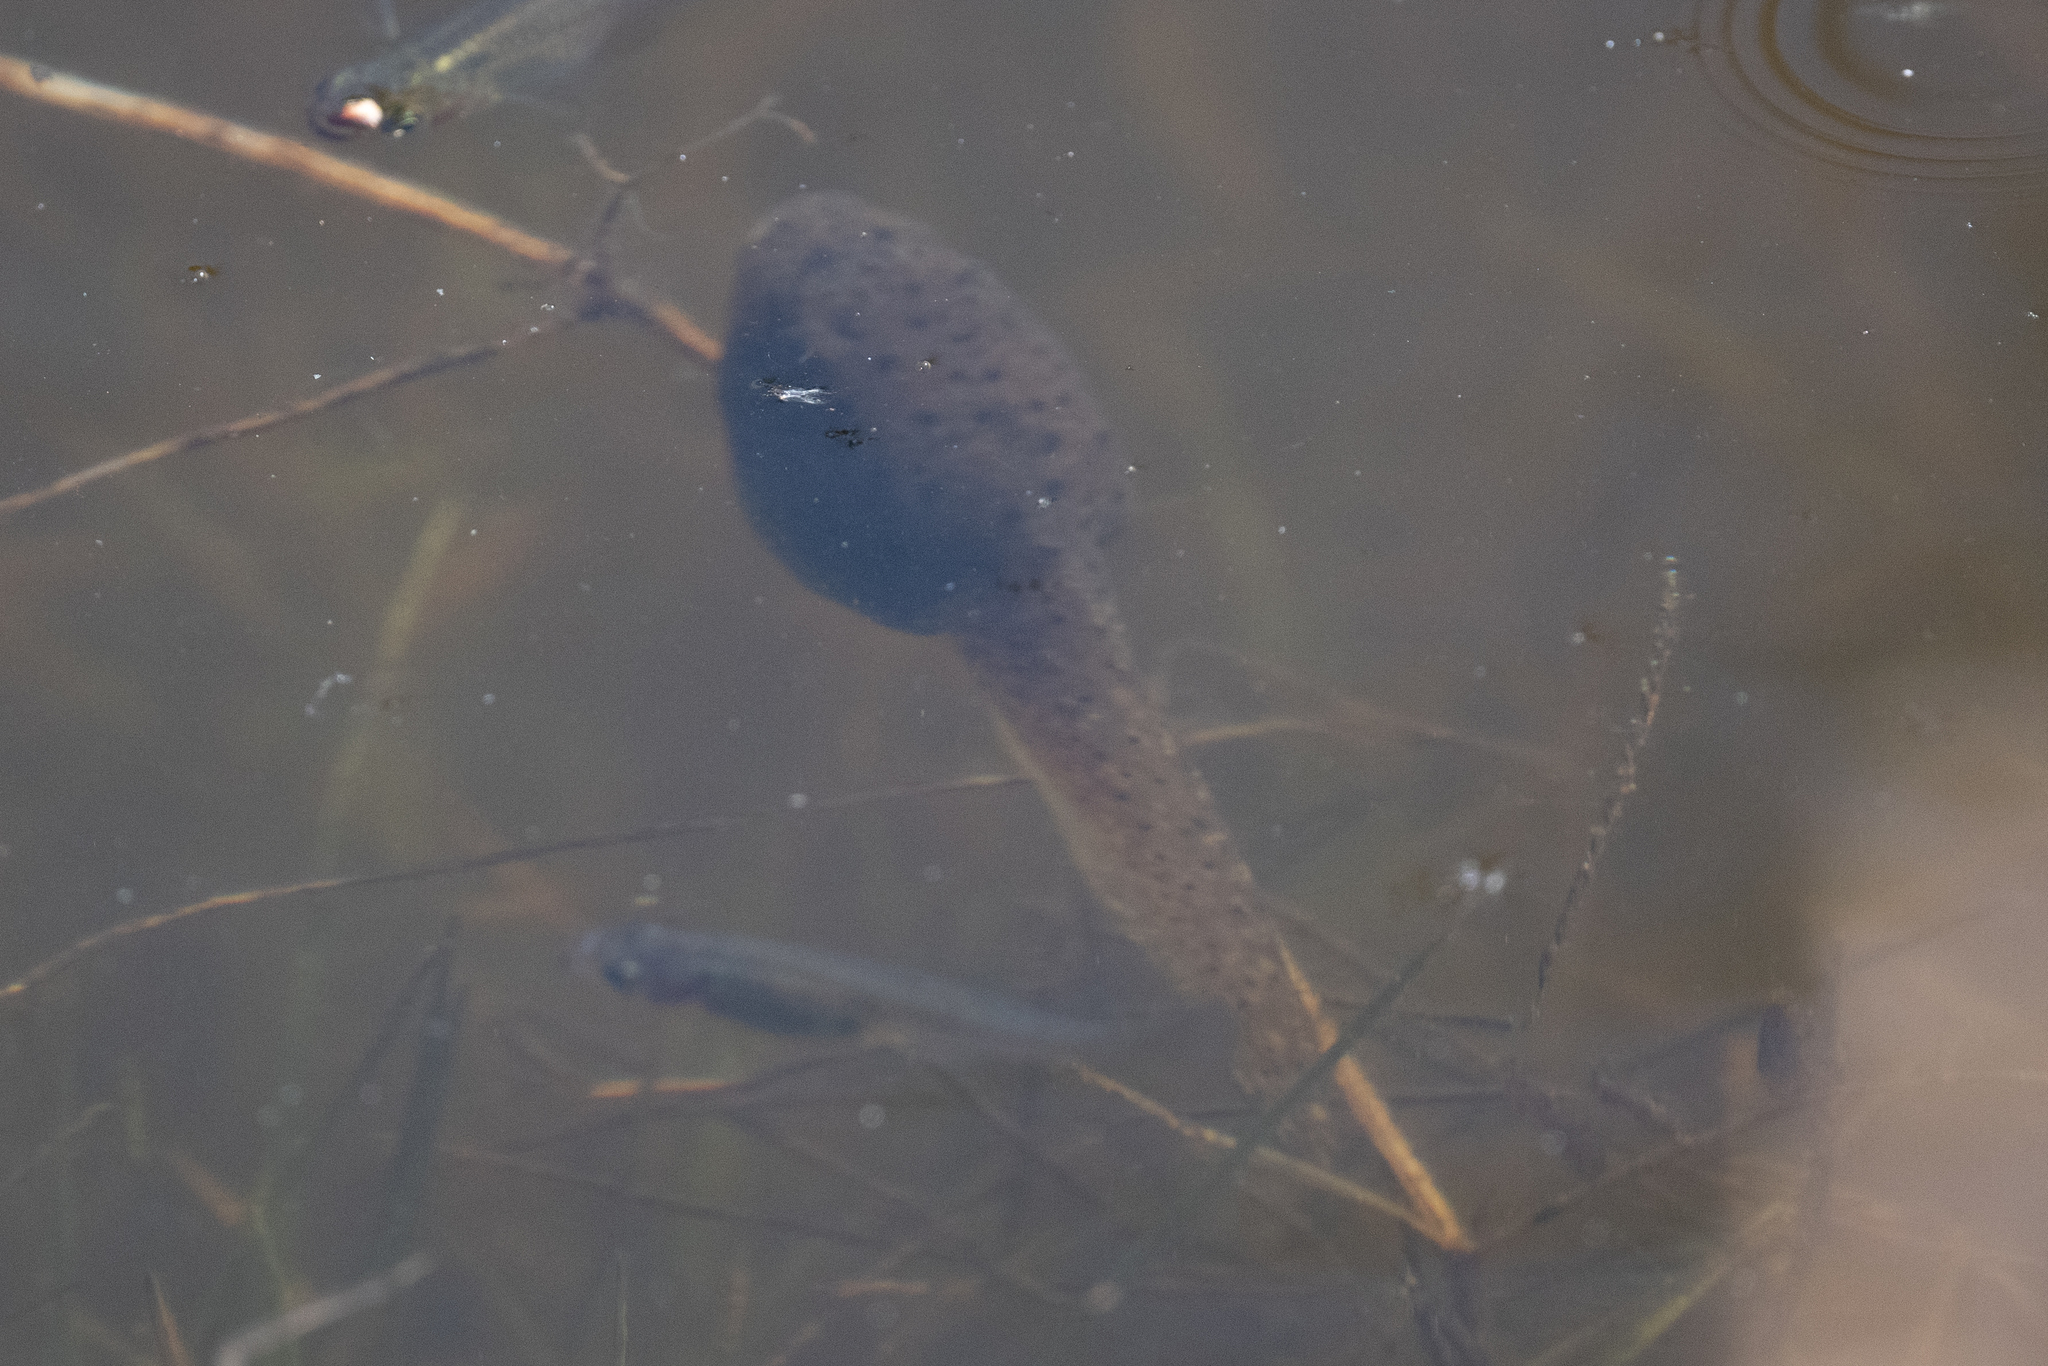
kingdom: Animalia
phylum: Chordata
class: Amphibia
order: Anura
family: Ranidae
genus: Lithobates
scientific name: Lithobates catesbeianus
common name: American bullfrog
